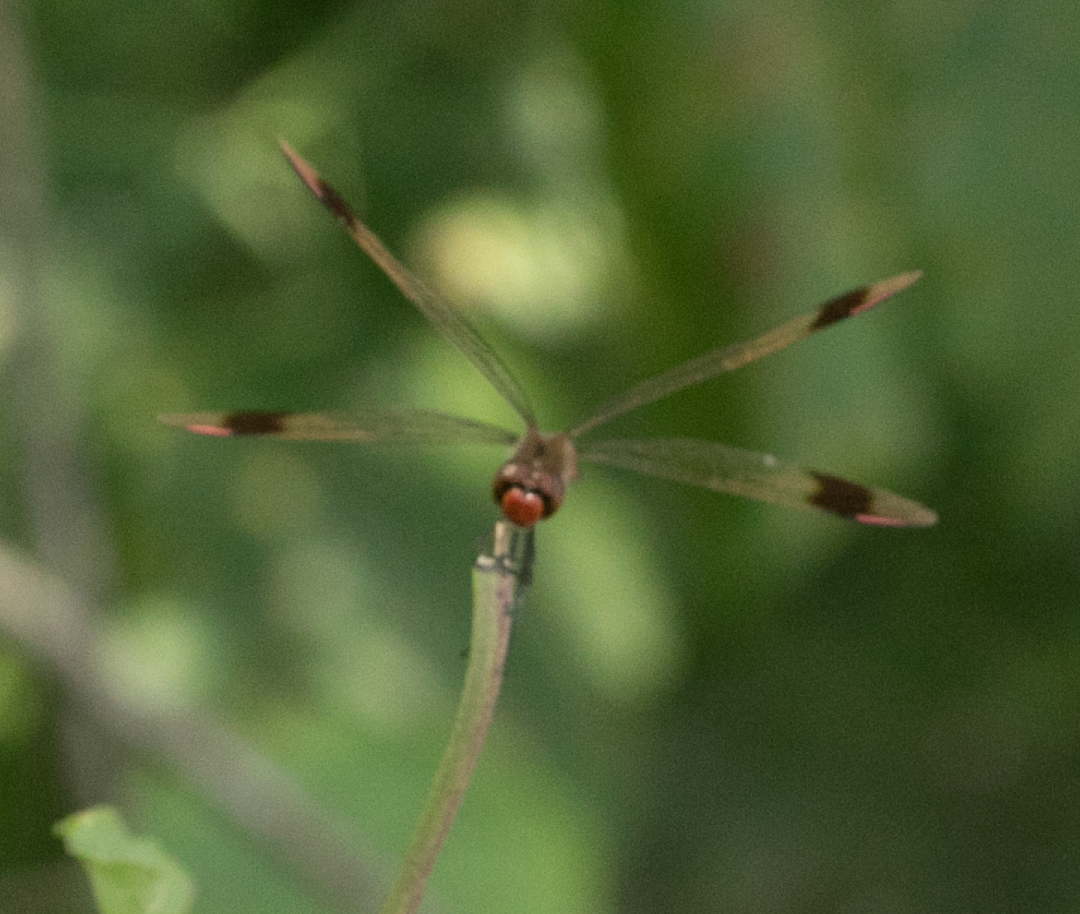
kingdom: Animalia
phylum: Arthropoda
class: Insecta
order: Odonata
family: Libellulidae
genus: Sympetrum
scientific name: Sympetrum pedemontanum
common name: Banded darter
